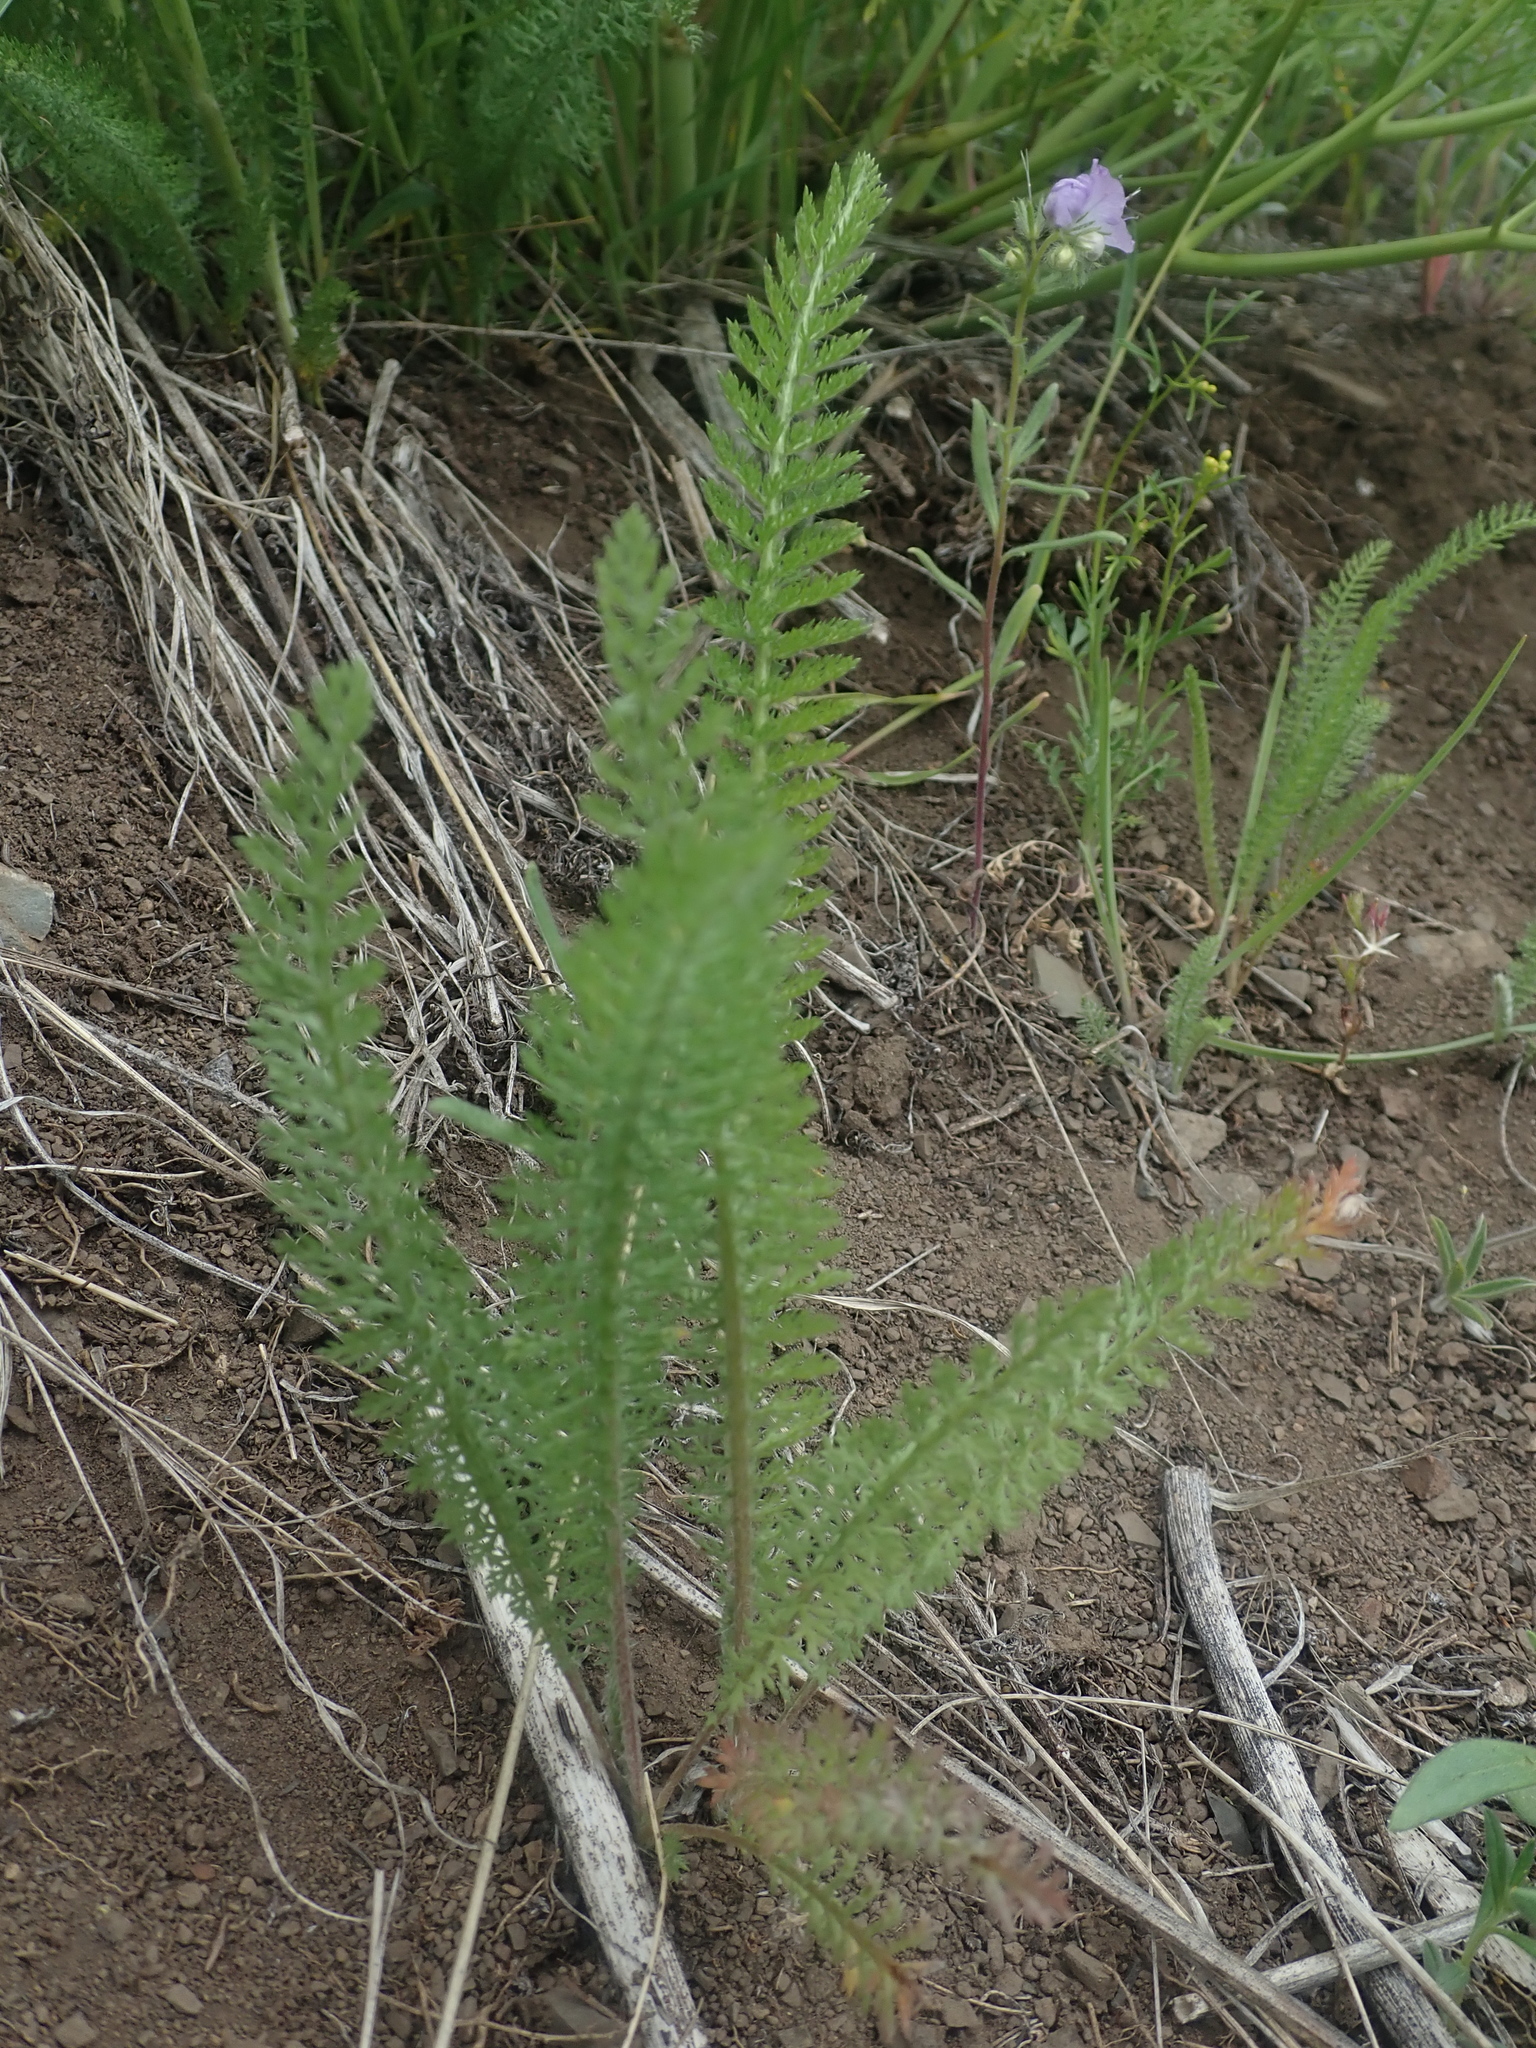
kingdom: Plantae
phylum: Tracheophyta
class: Magnoliopsida
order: Asterales
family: Asteraceae
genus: Achillea
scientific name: Achillea millefolium
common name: Yarrow
